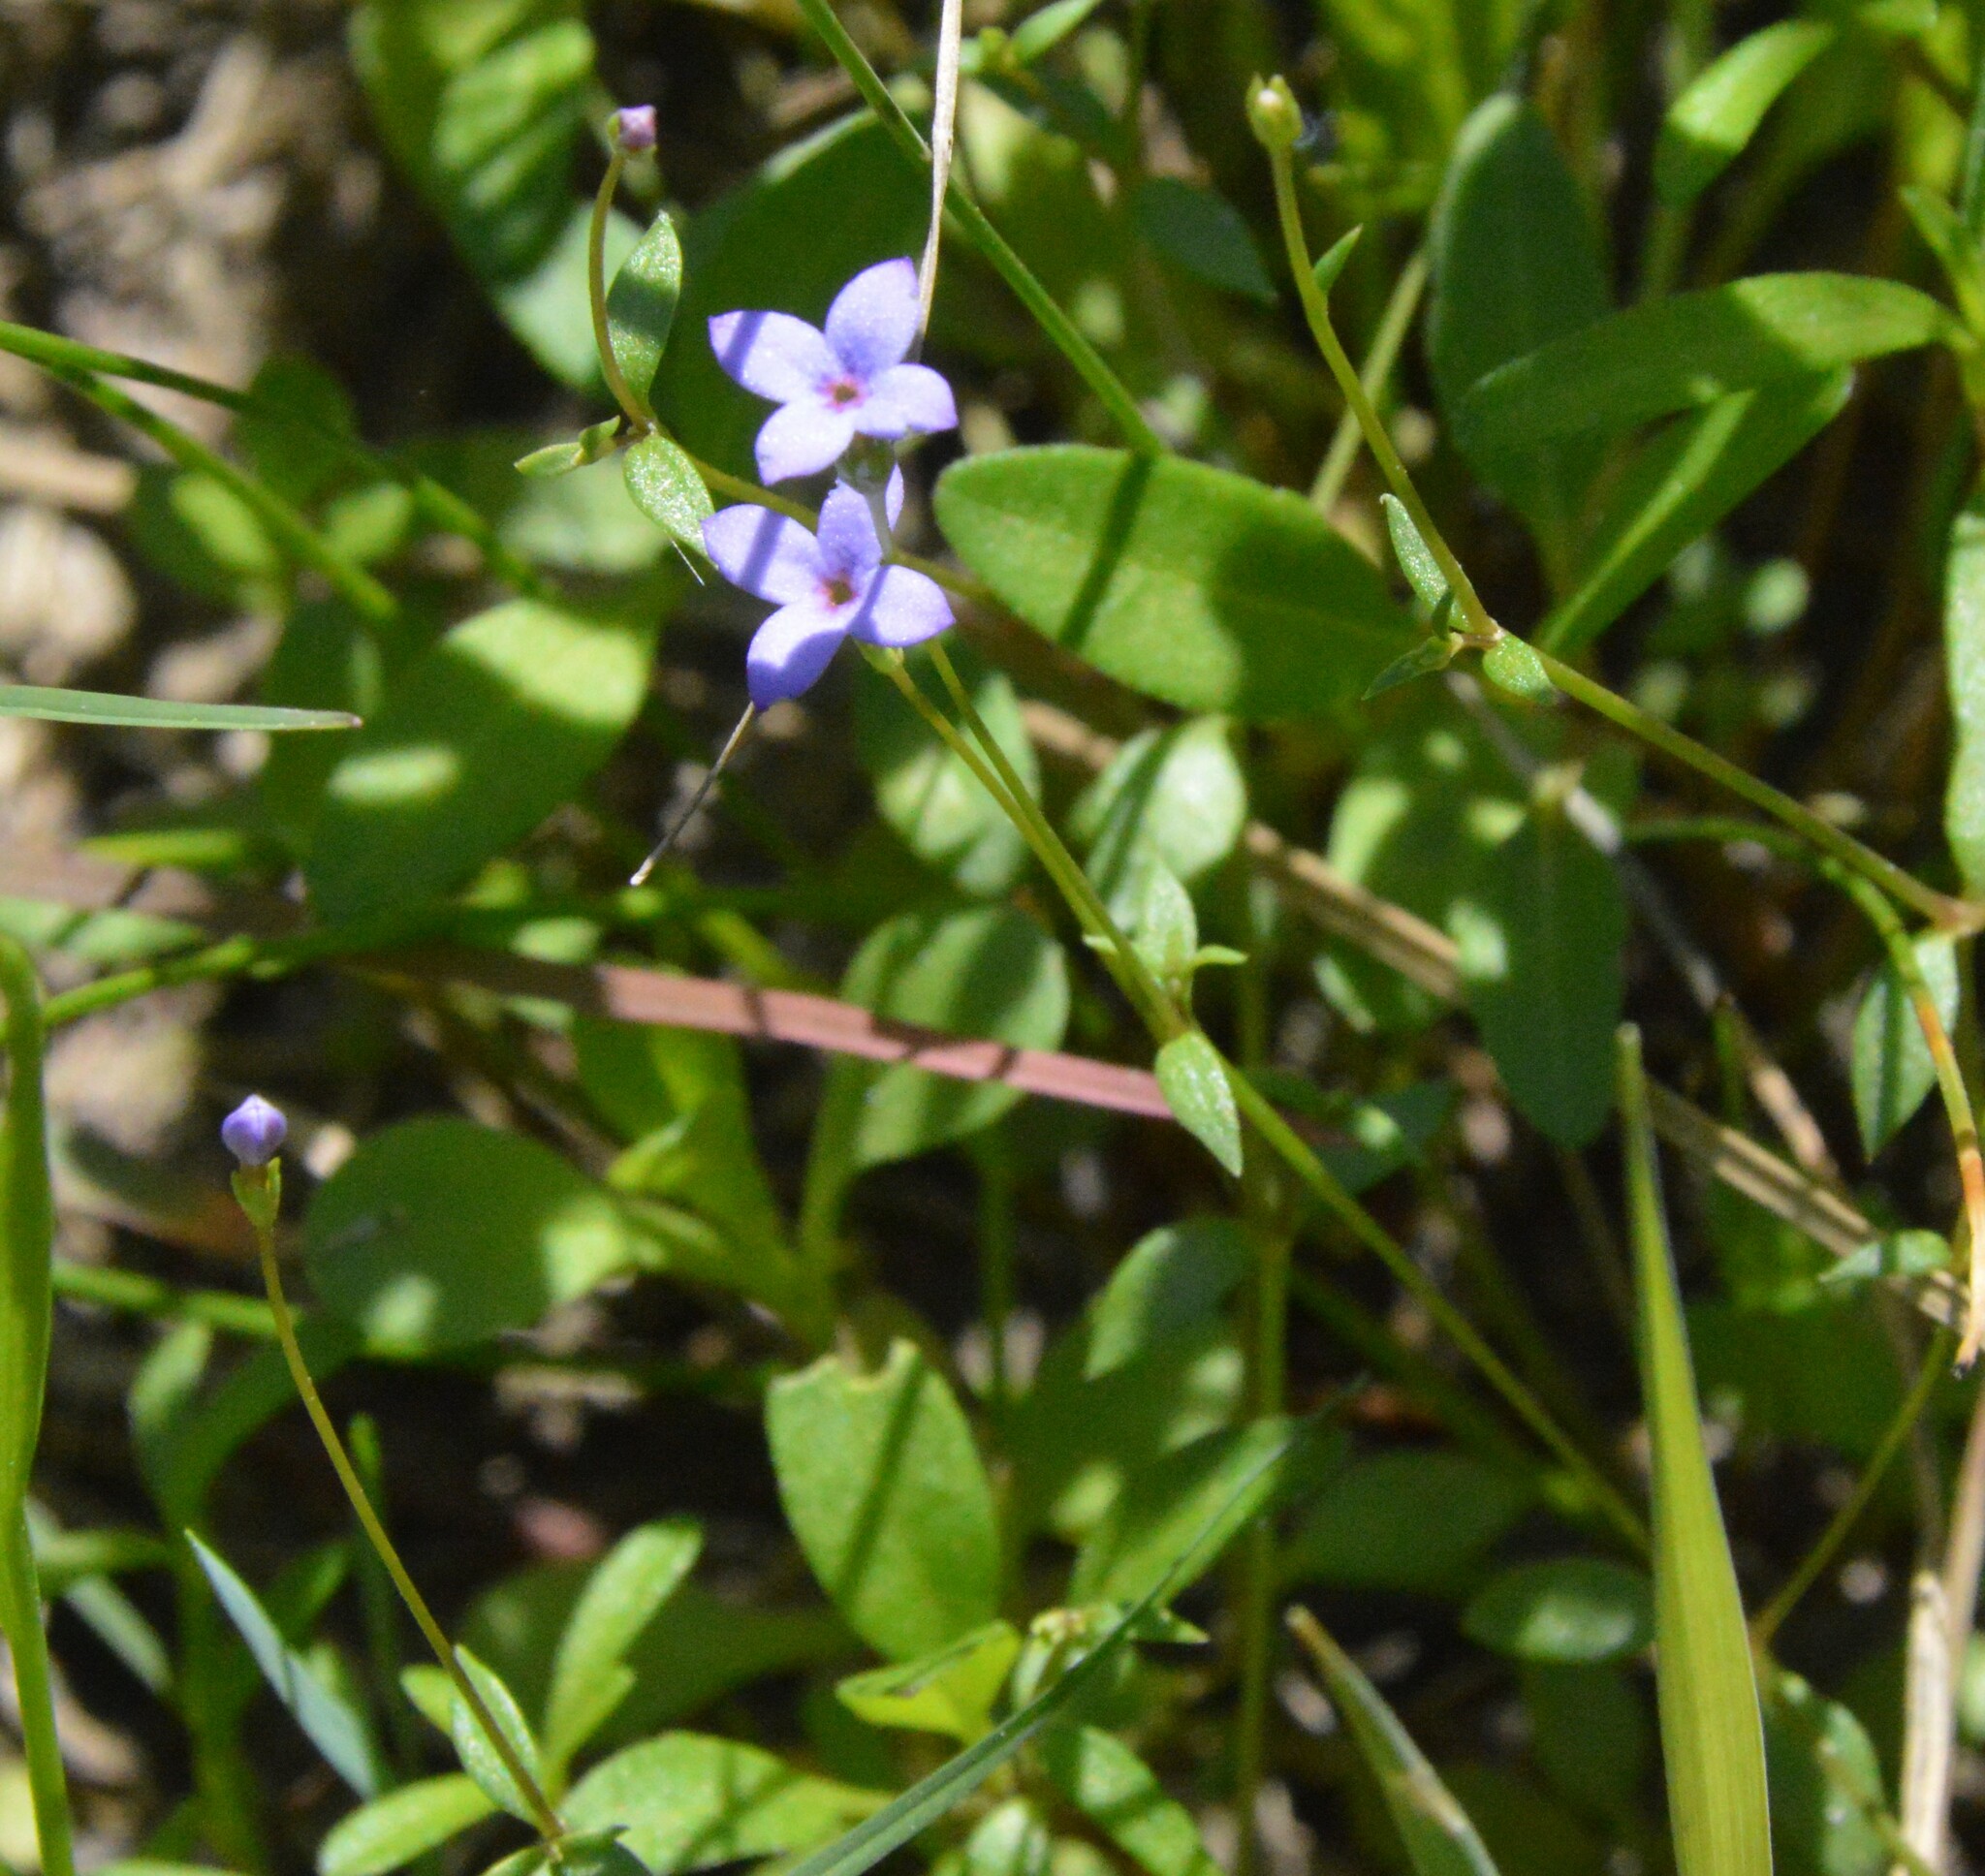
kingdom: Plantae
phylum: Tracheophyta
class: Magnoliopsida
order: Gentianales
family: Rubiaceae
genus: Houstonia
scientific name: Houstonia pusilla
